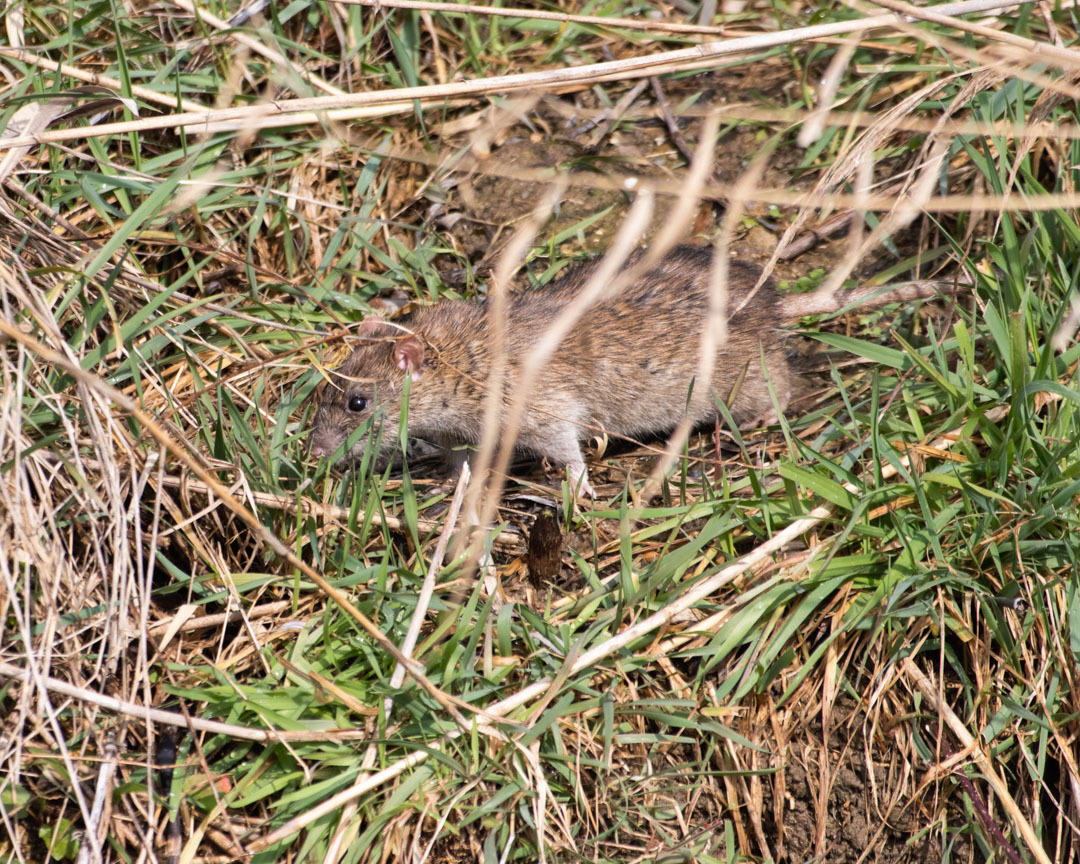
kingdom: Animalia
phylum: Chordata
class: Mammalia
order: Rodentia
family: Muridae
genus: Rattus
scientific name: Rattus norvegicus
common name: Brown rat
